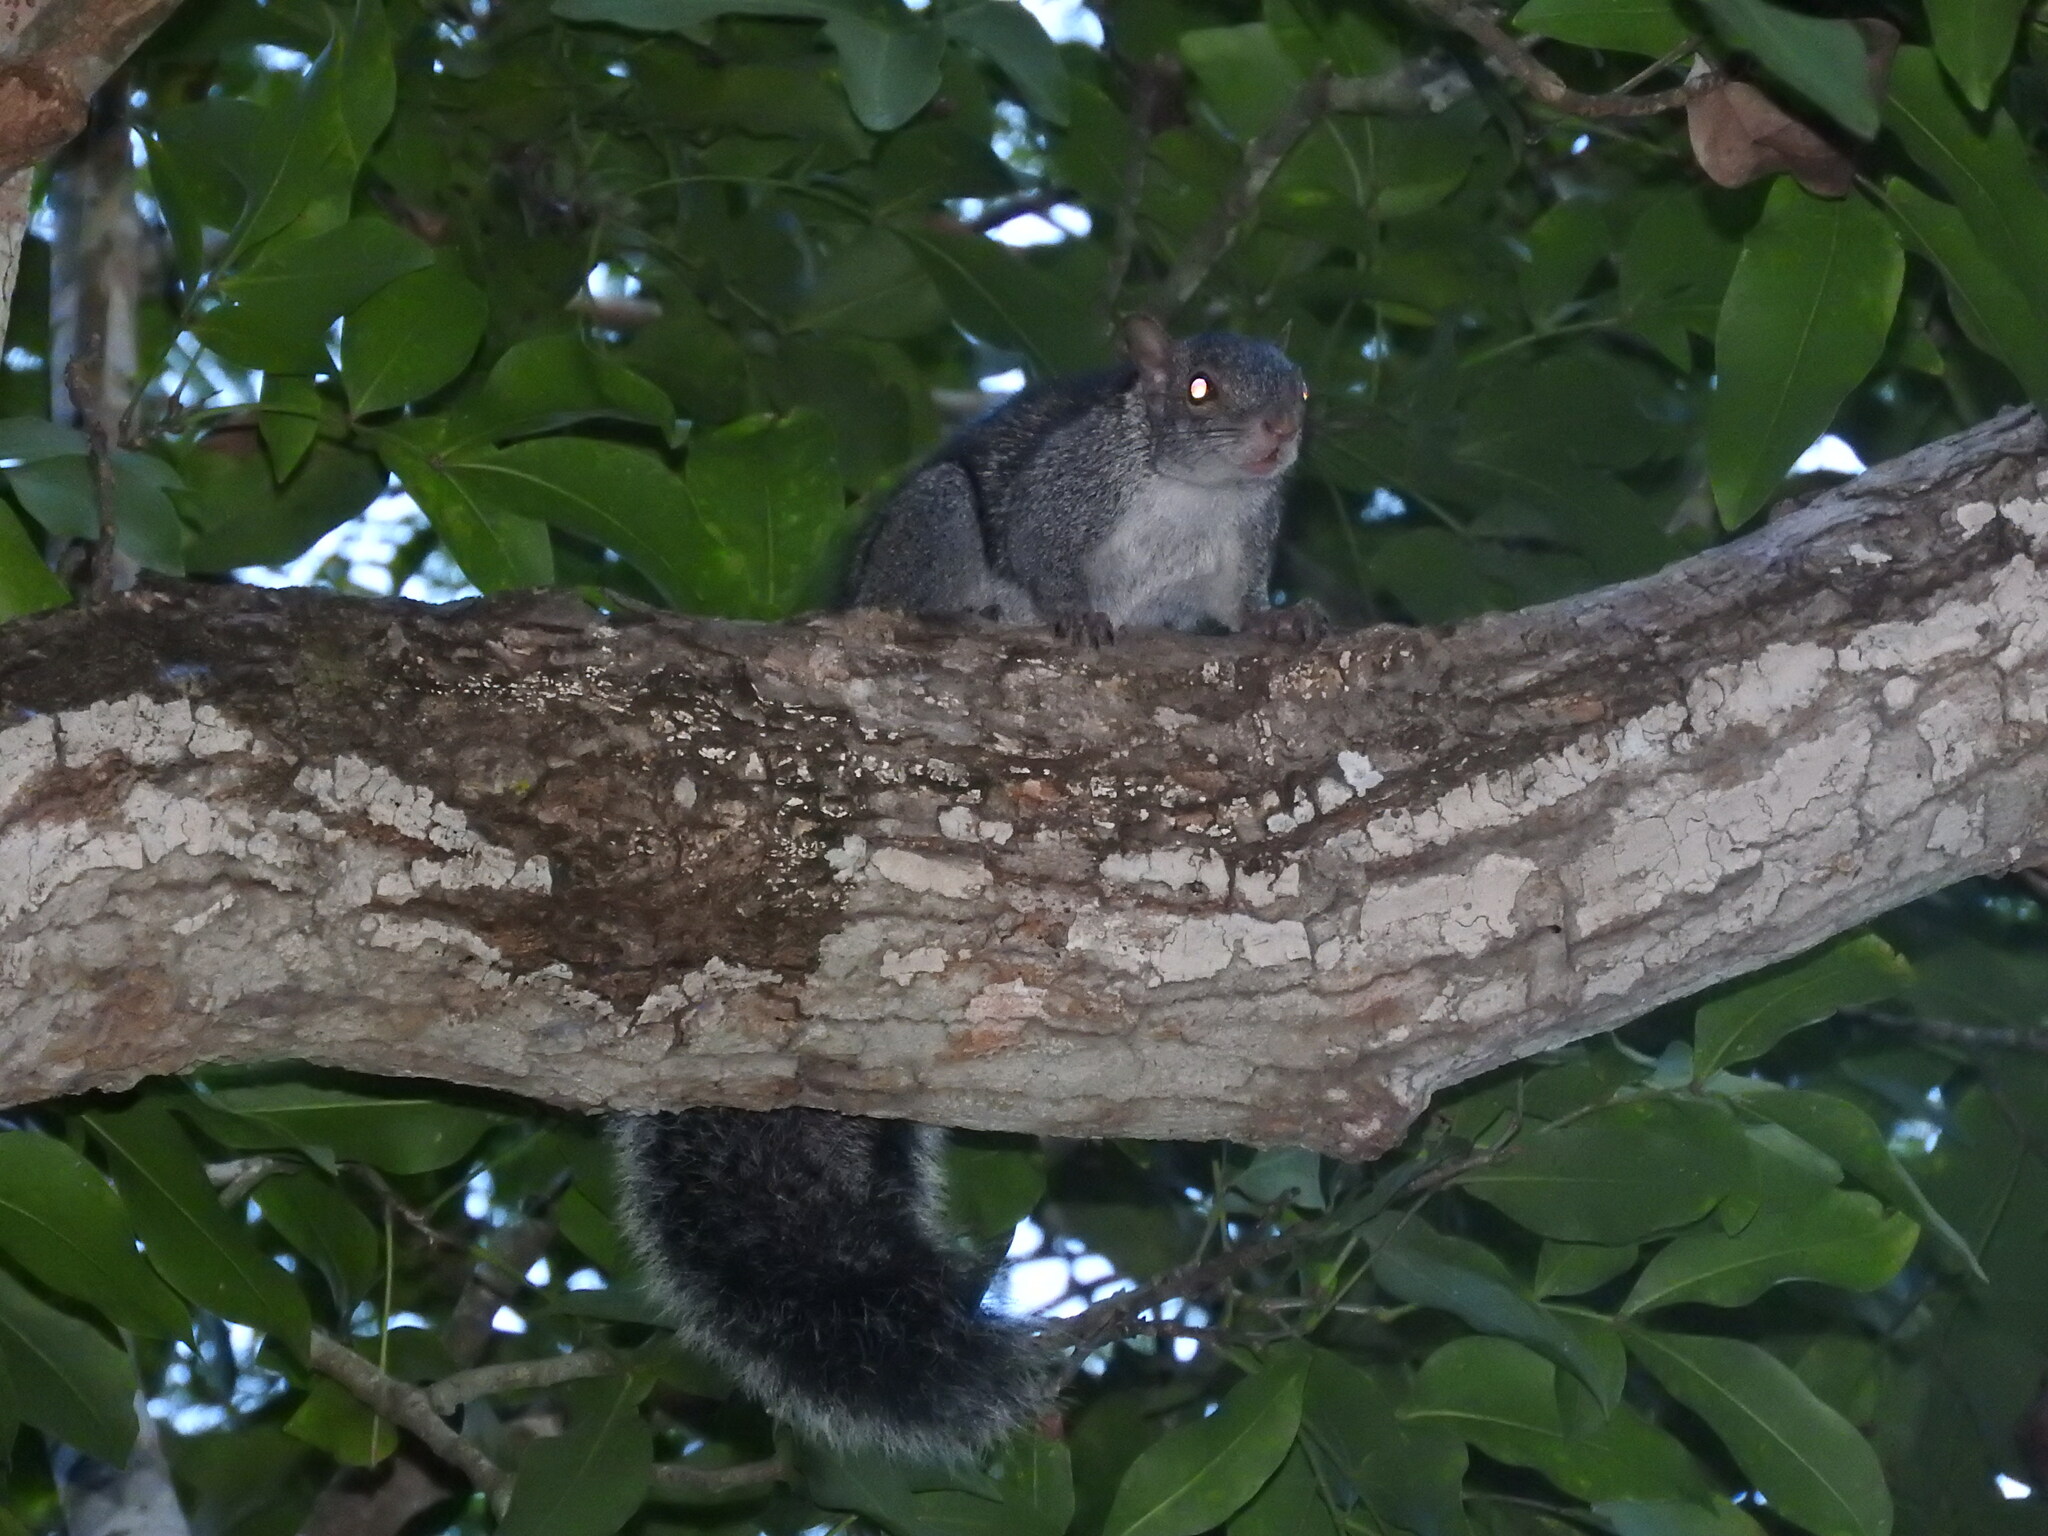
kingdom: Animalia
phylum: Chordata
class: Mammalia
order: Rodentia
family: Sciuridae
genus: Sciurus
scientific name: Sciurus yucatanensis
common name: Yucatan squirrel
